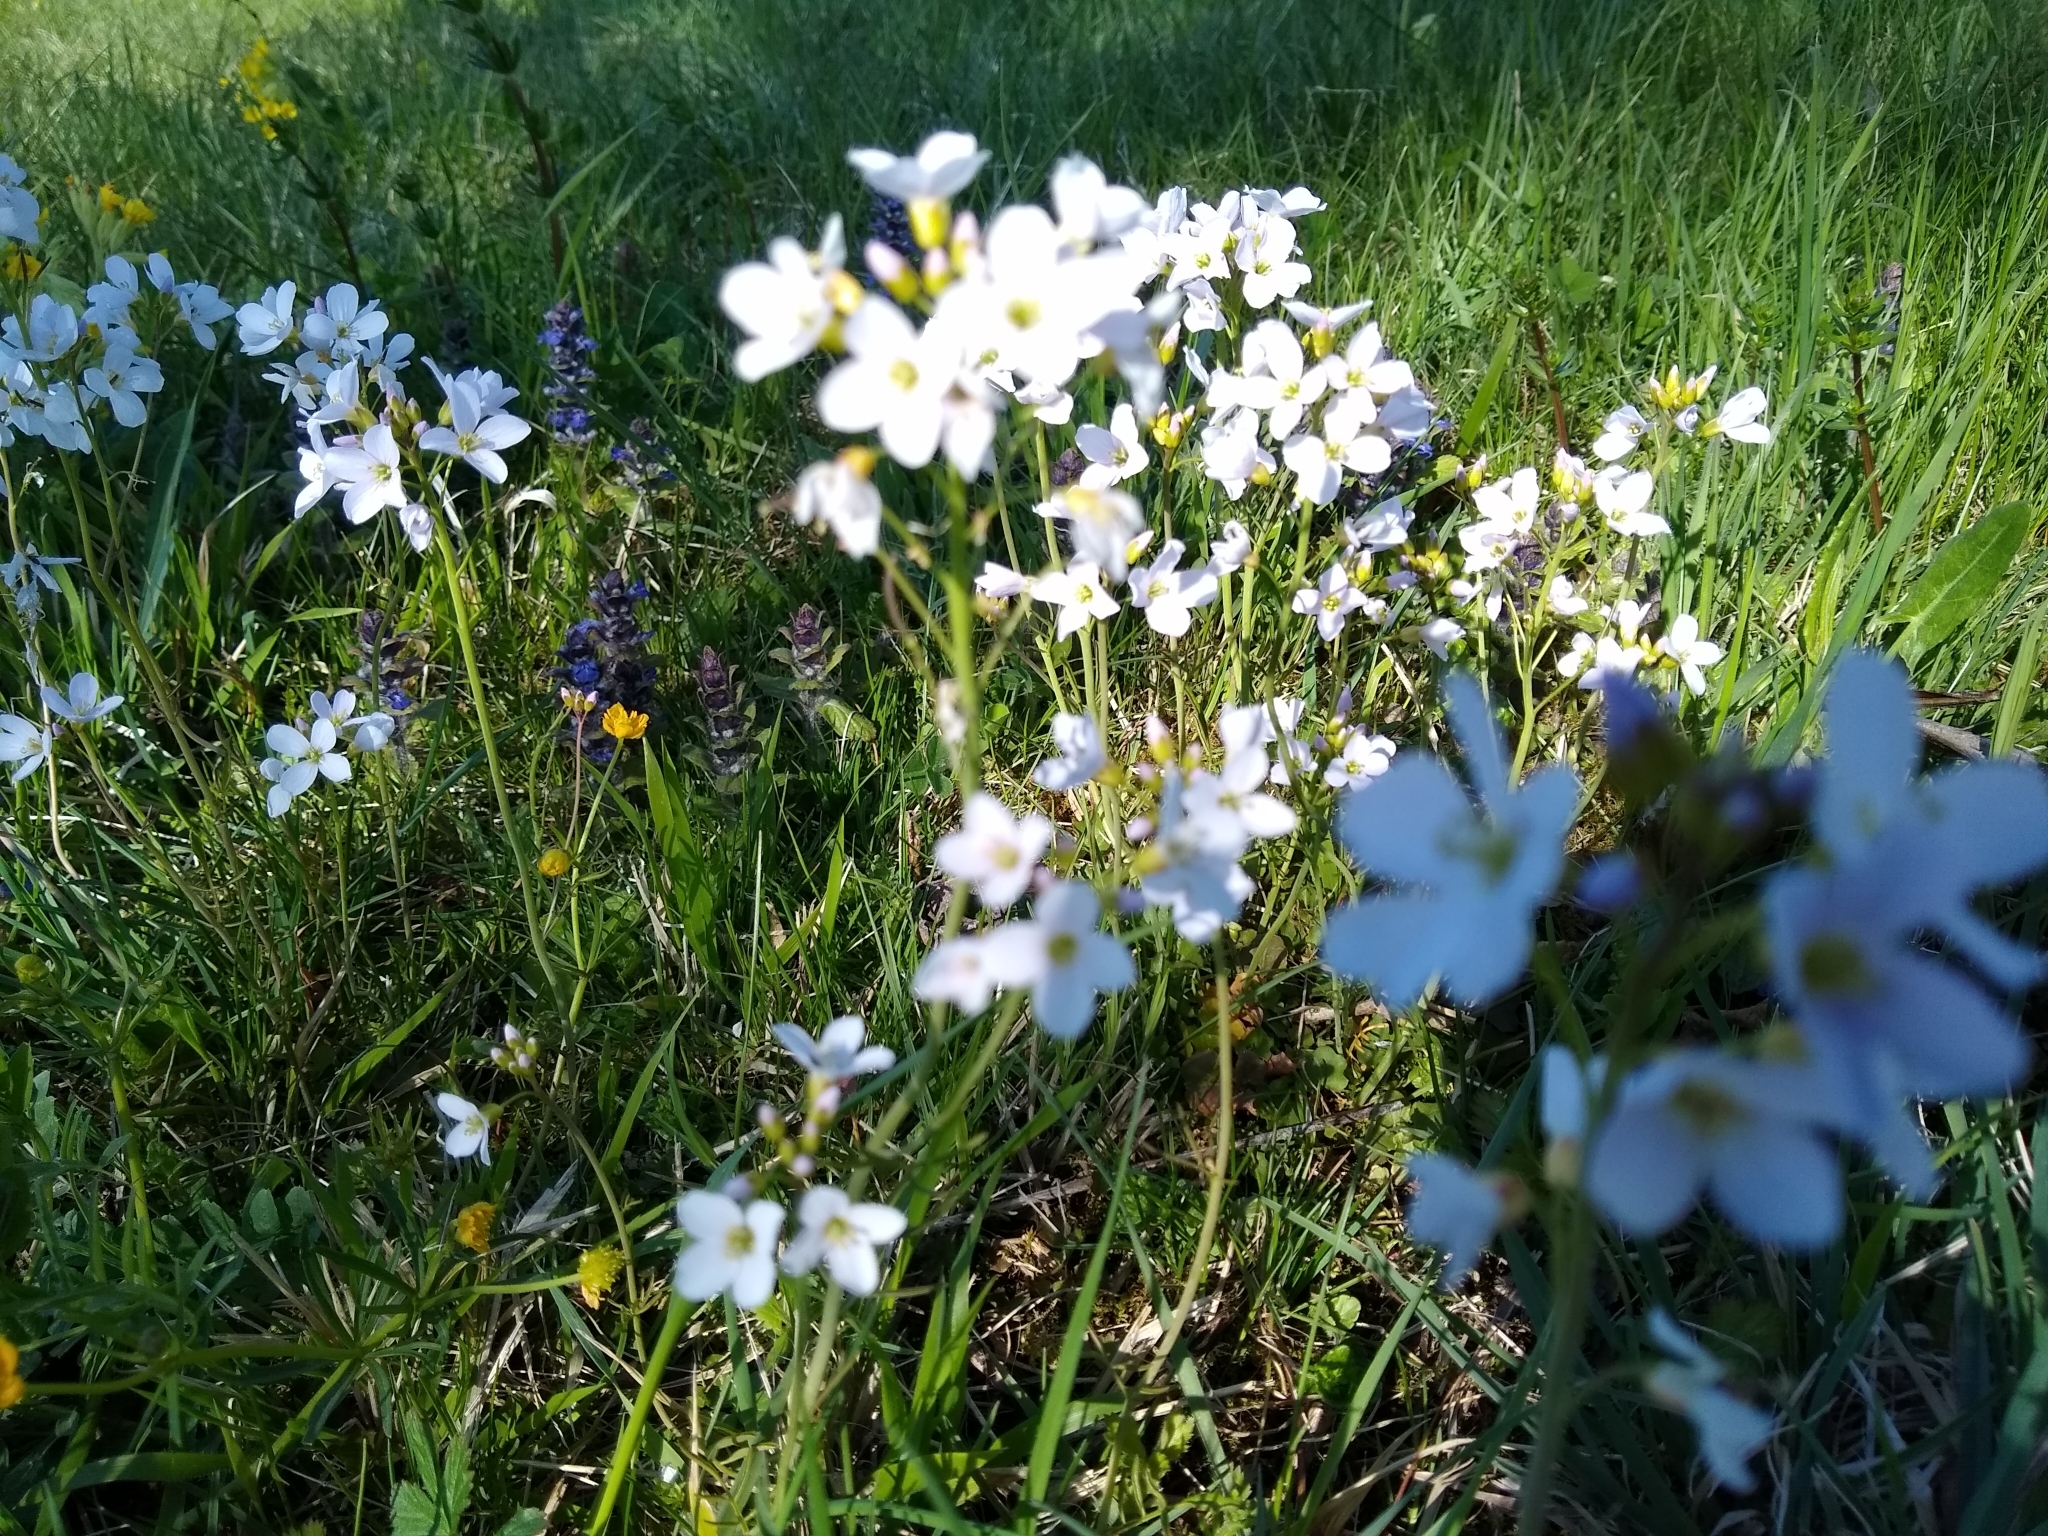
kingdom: Plantae
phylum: Tracheophyta
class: Magnoliopsida
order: Brassicales
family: Brassicaceae
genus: Cardamine
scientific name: Cardamine pratensis
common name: Cuckoo flower
